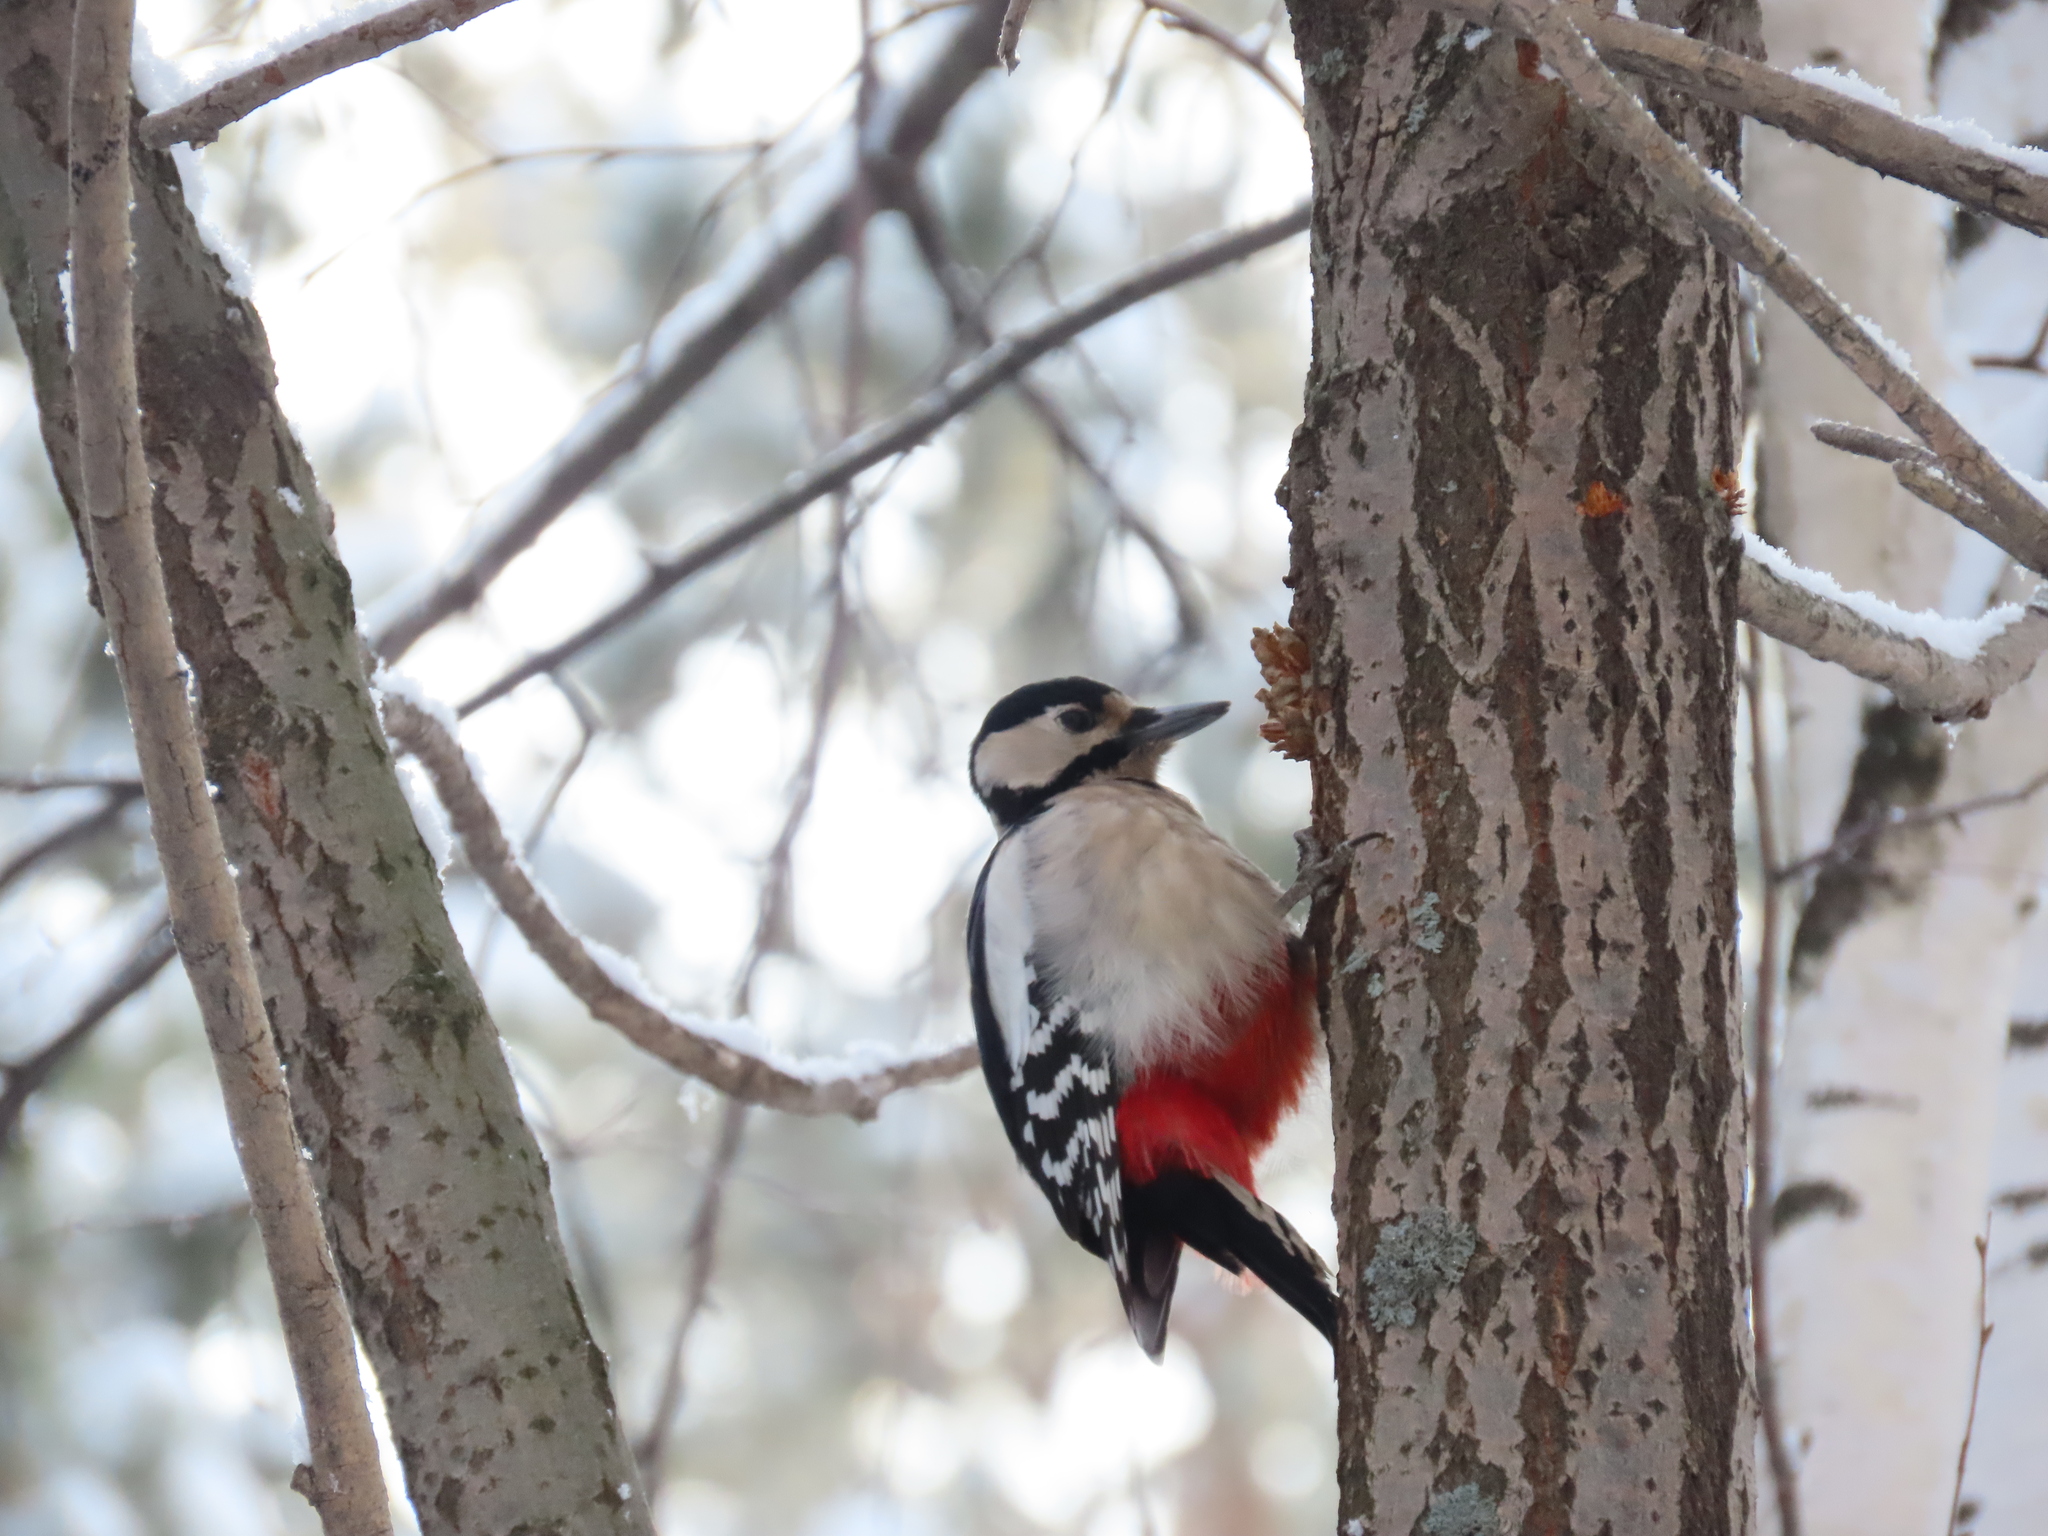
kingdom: Animalia
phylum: Chordata
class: Aves
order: Piciformes
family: Picidae
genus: Dendrocopos
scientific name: Dendrocopos major
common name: Great spotted woodpecker
